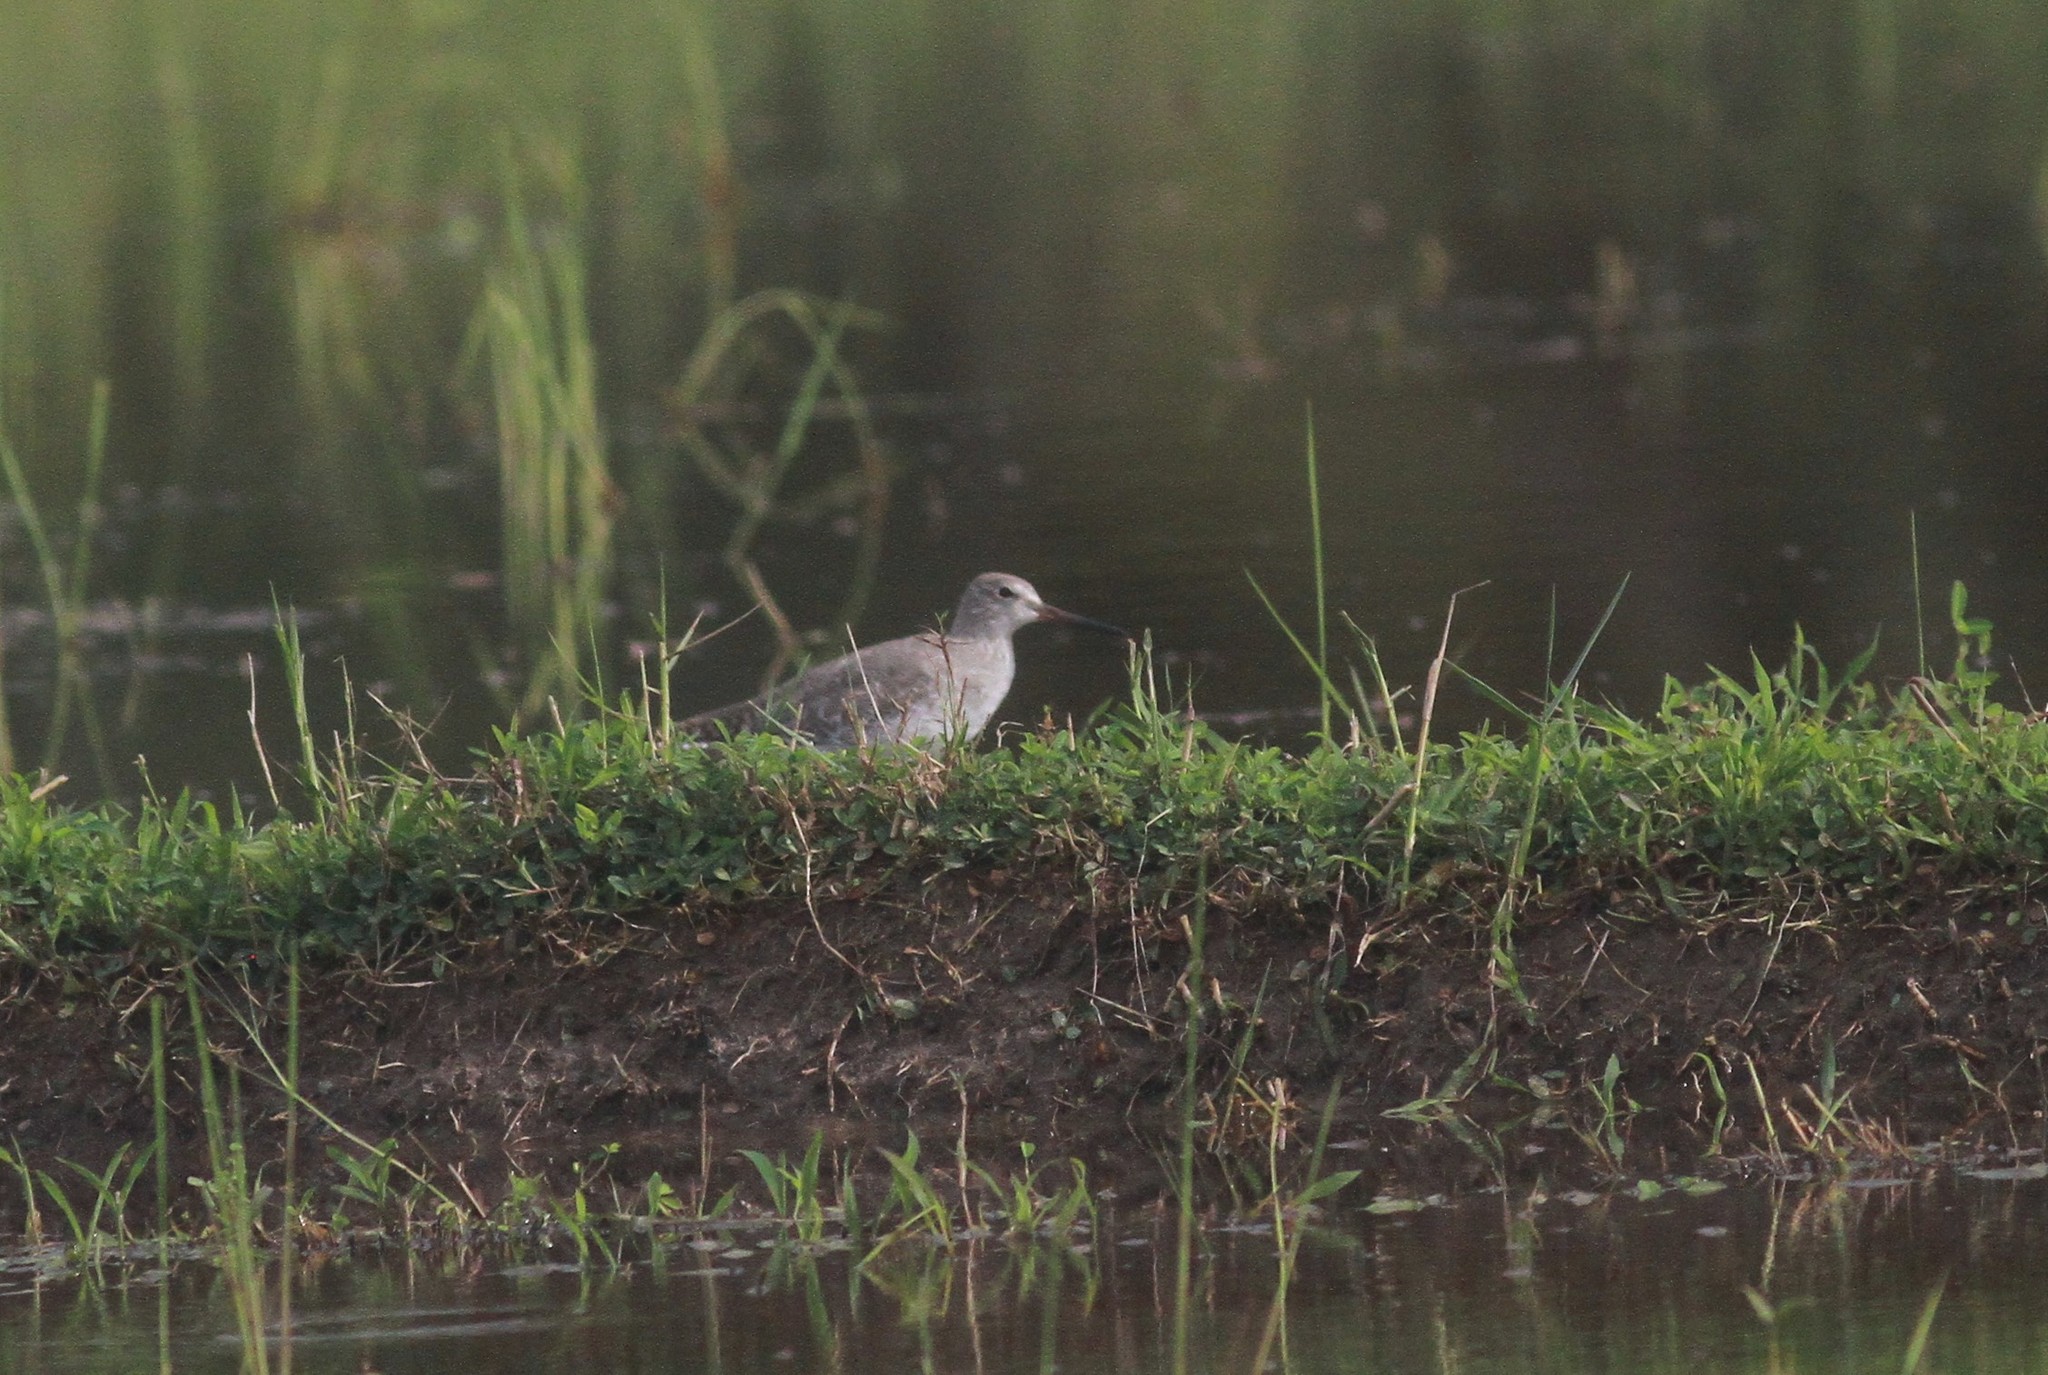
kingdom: Animalia
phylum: Chordata
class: Aves
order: Charadriiformes
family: Scolopacidae
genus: Tringa
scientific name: Tringa totanus
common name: Common redshank
